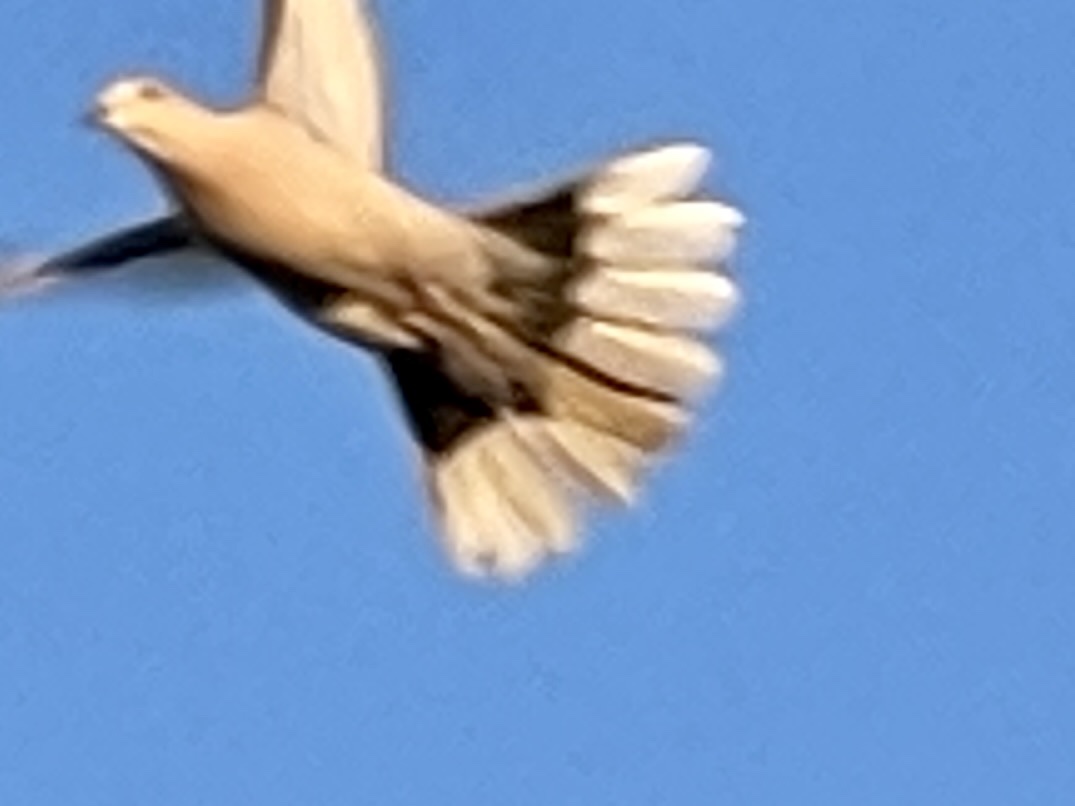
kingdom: Animalia
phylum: Chordata
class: Aves
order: Columbiformes
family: Columbidae
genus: Streptopelia
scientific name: Streptopelia decaocto
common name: Eurasian collared dove
